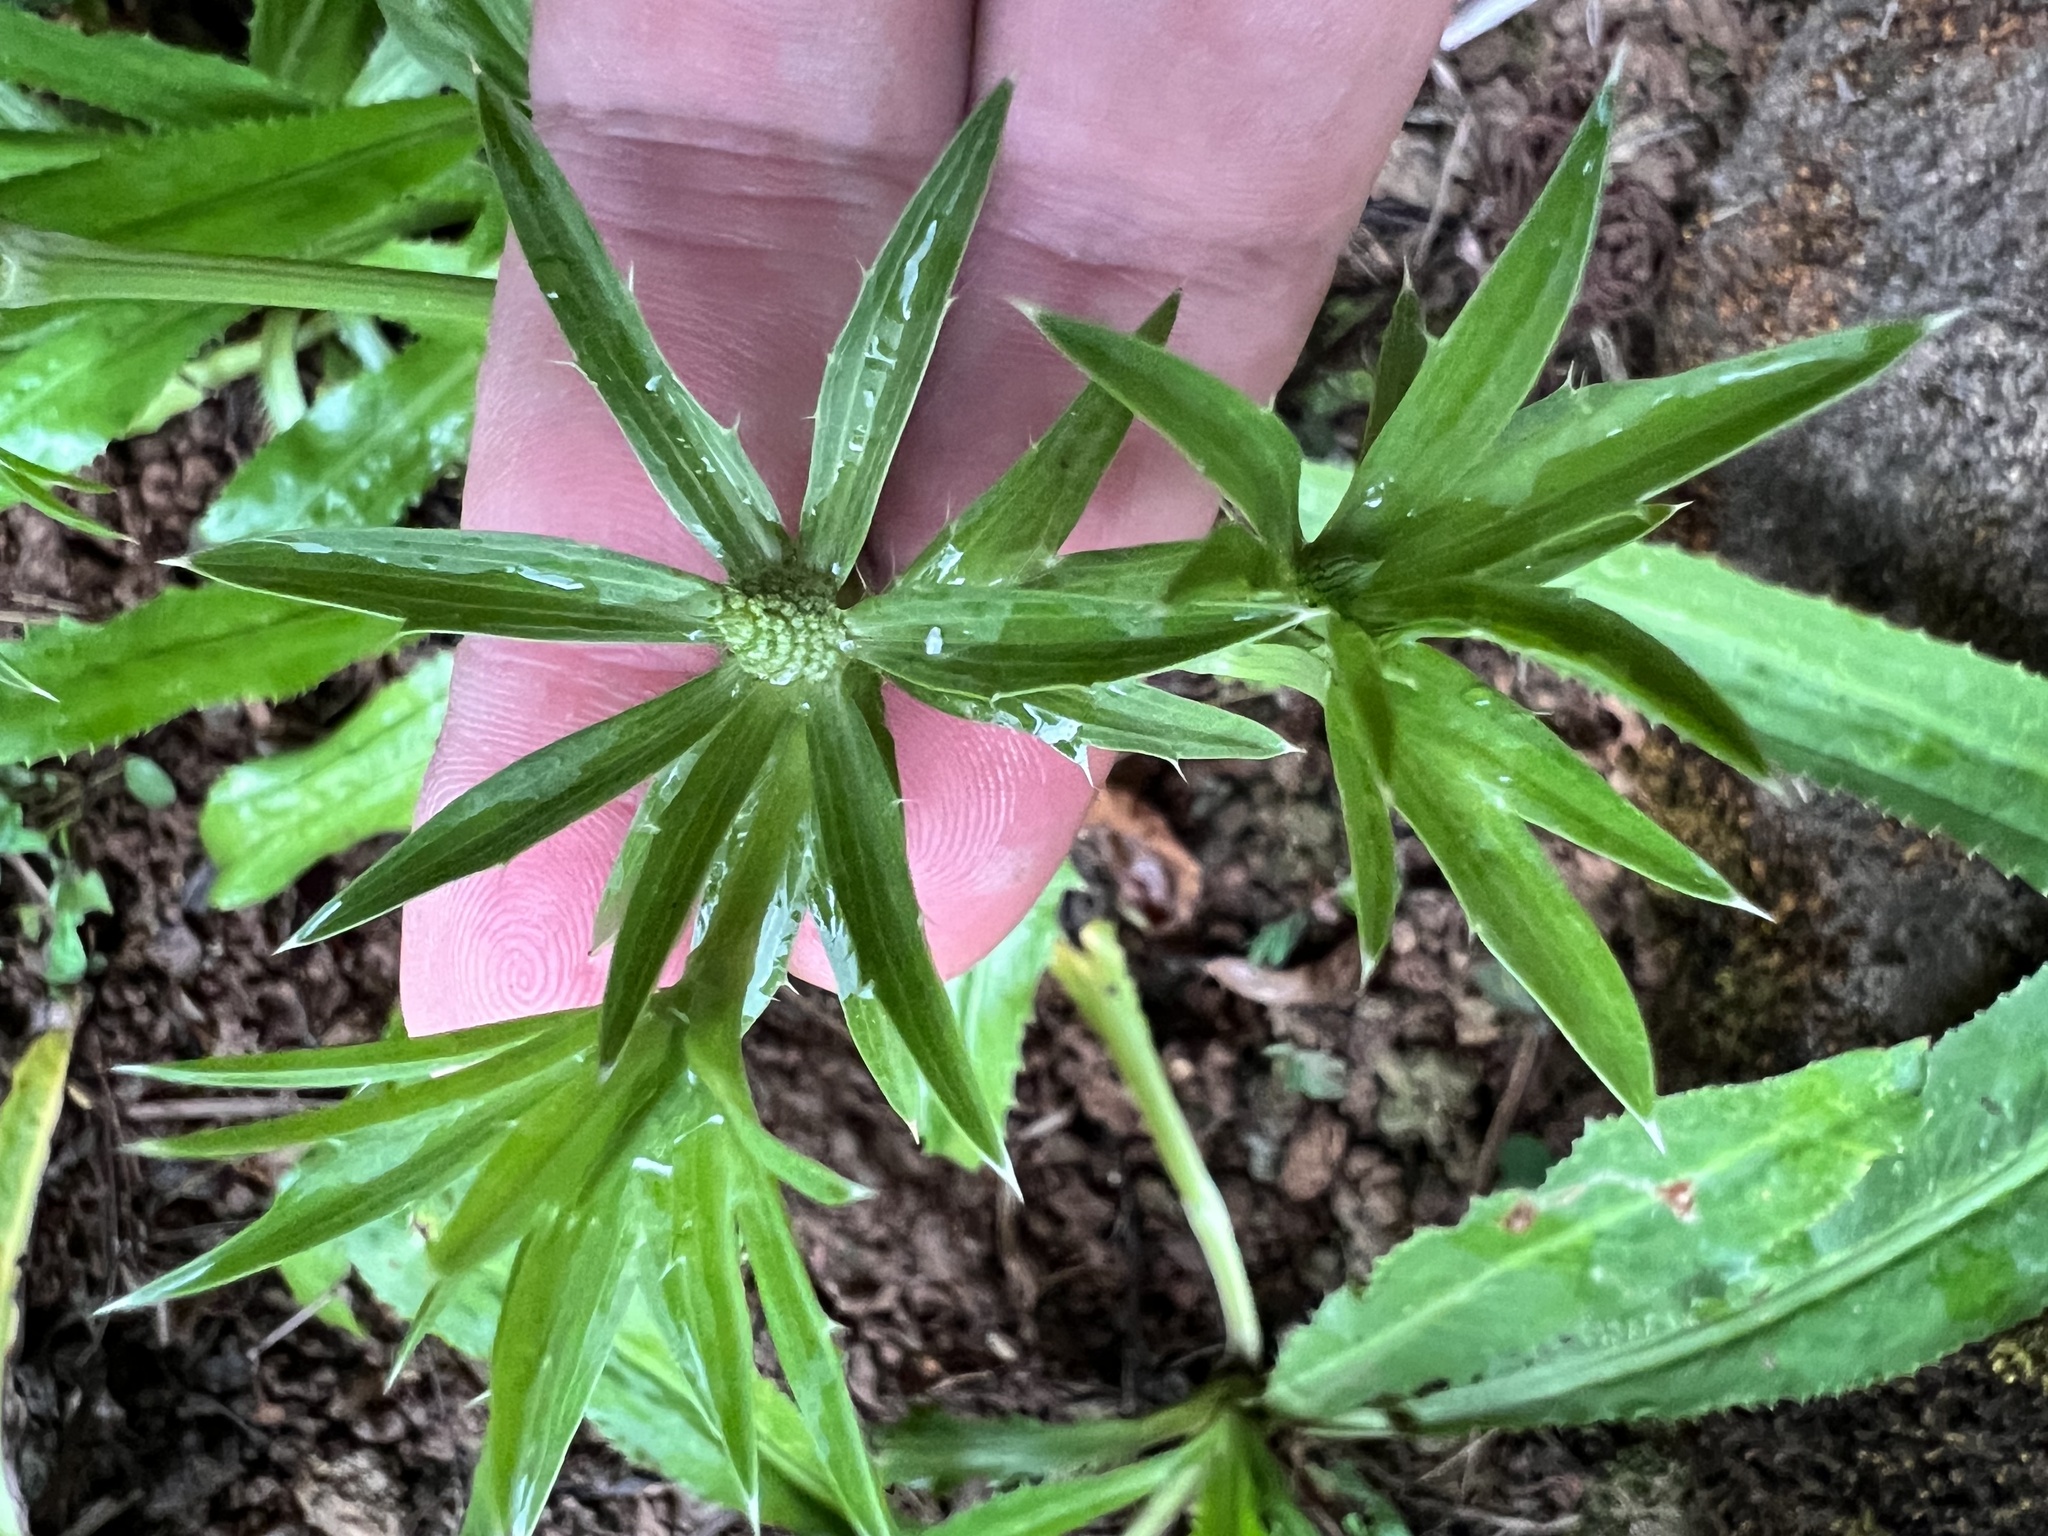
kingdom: Plantae
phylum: Tracheophyta
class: Magnoliopsida
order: Apiales
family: Apiaceae
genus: Eryngium
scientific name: Eryngium foetidum
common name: Fitweed
